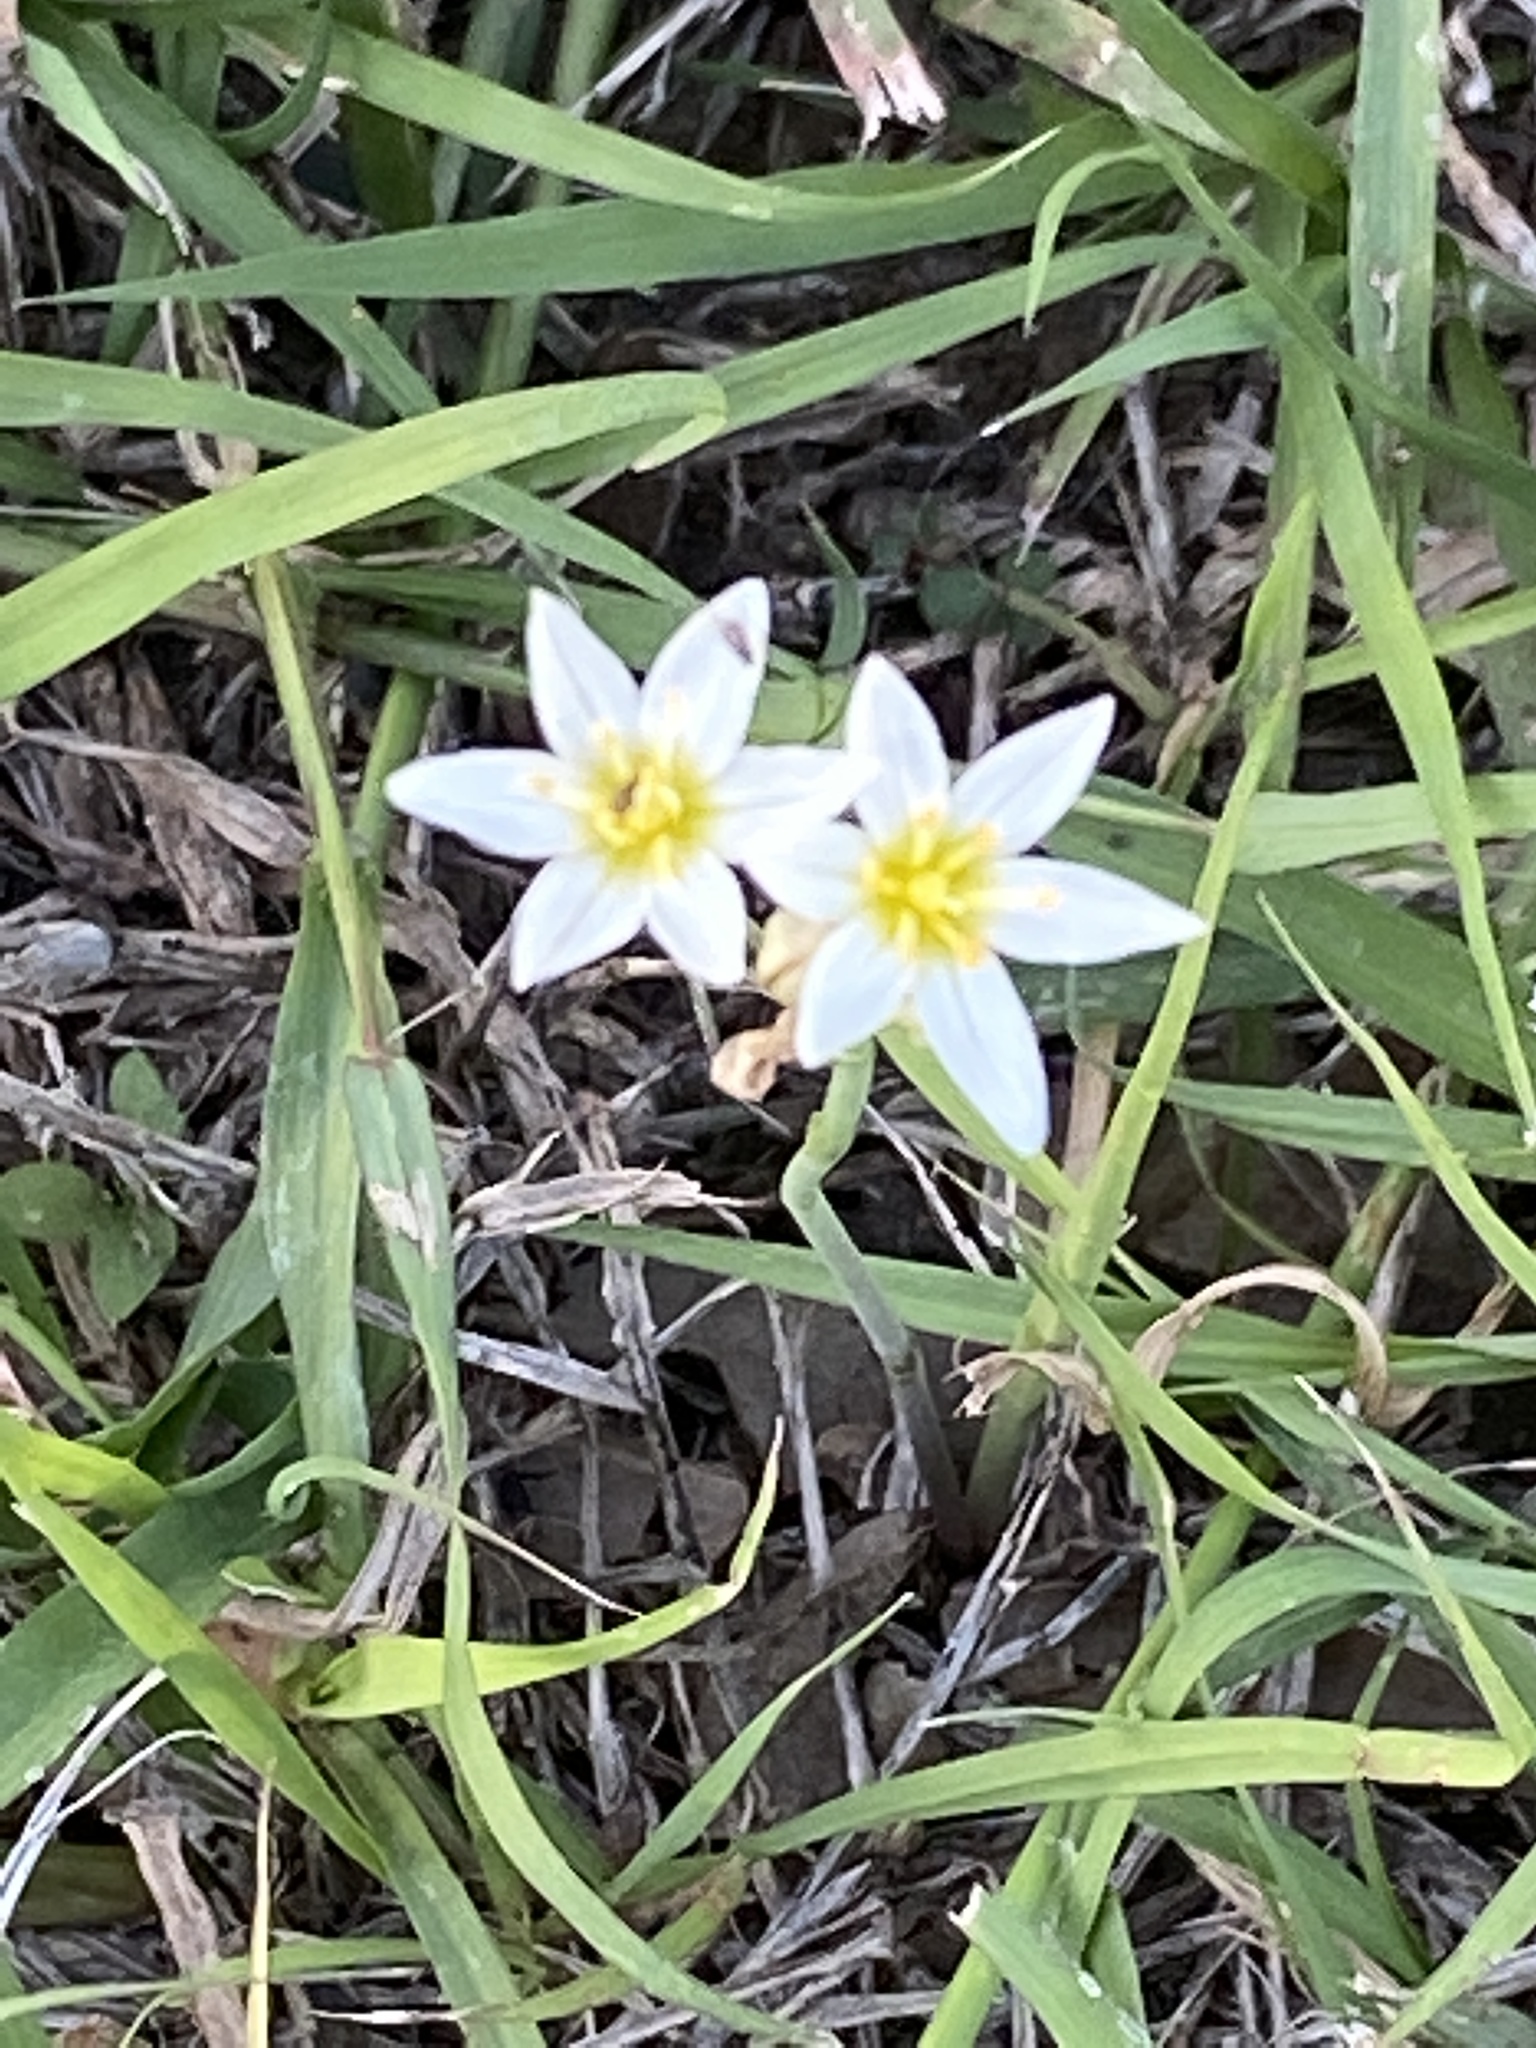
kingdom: Plantae
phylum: Tracheophyta
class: Liliopsida
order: Asparagales
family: Amaryllidaceae
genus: Nothoscordum
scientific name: Nothoscordum bivalve
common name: Crow-poison
